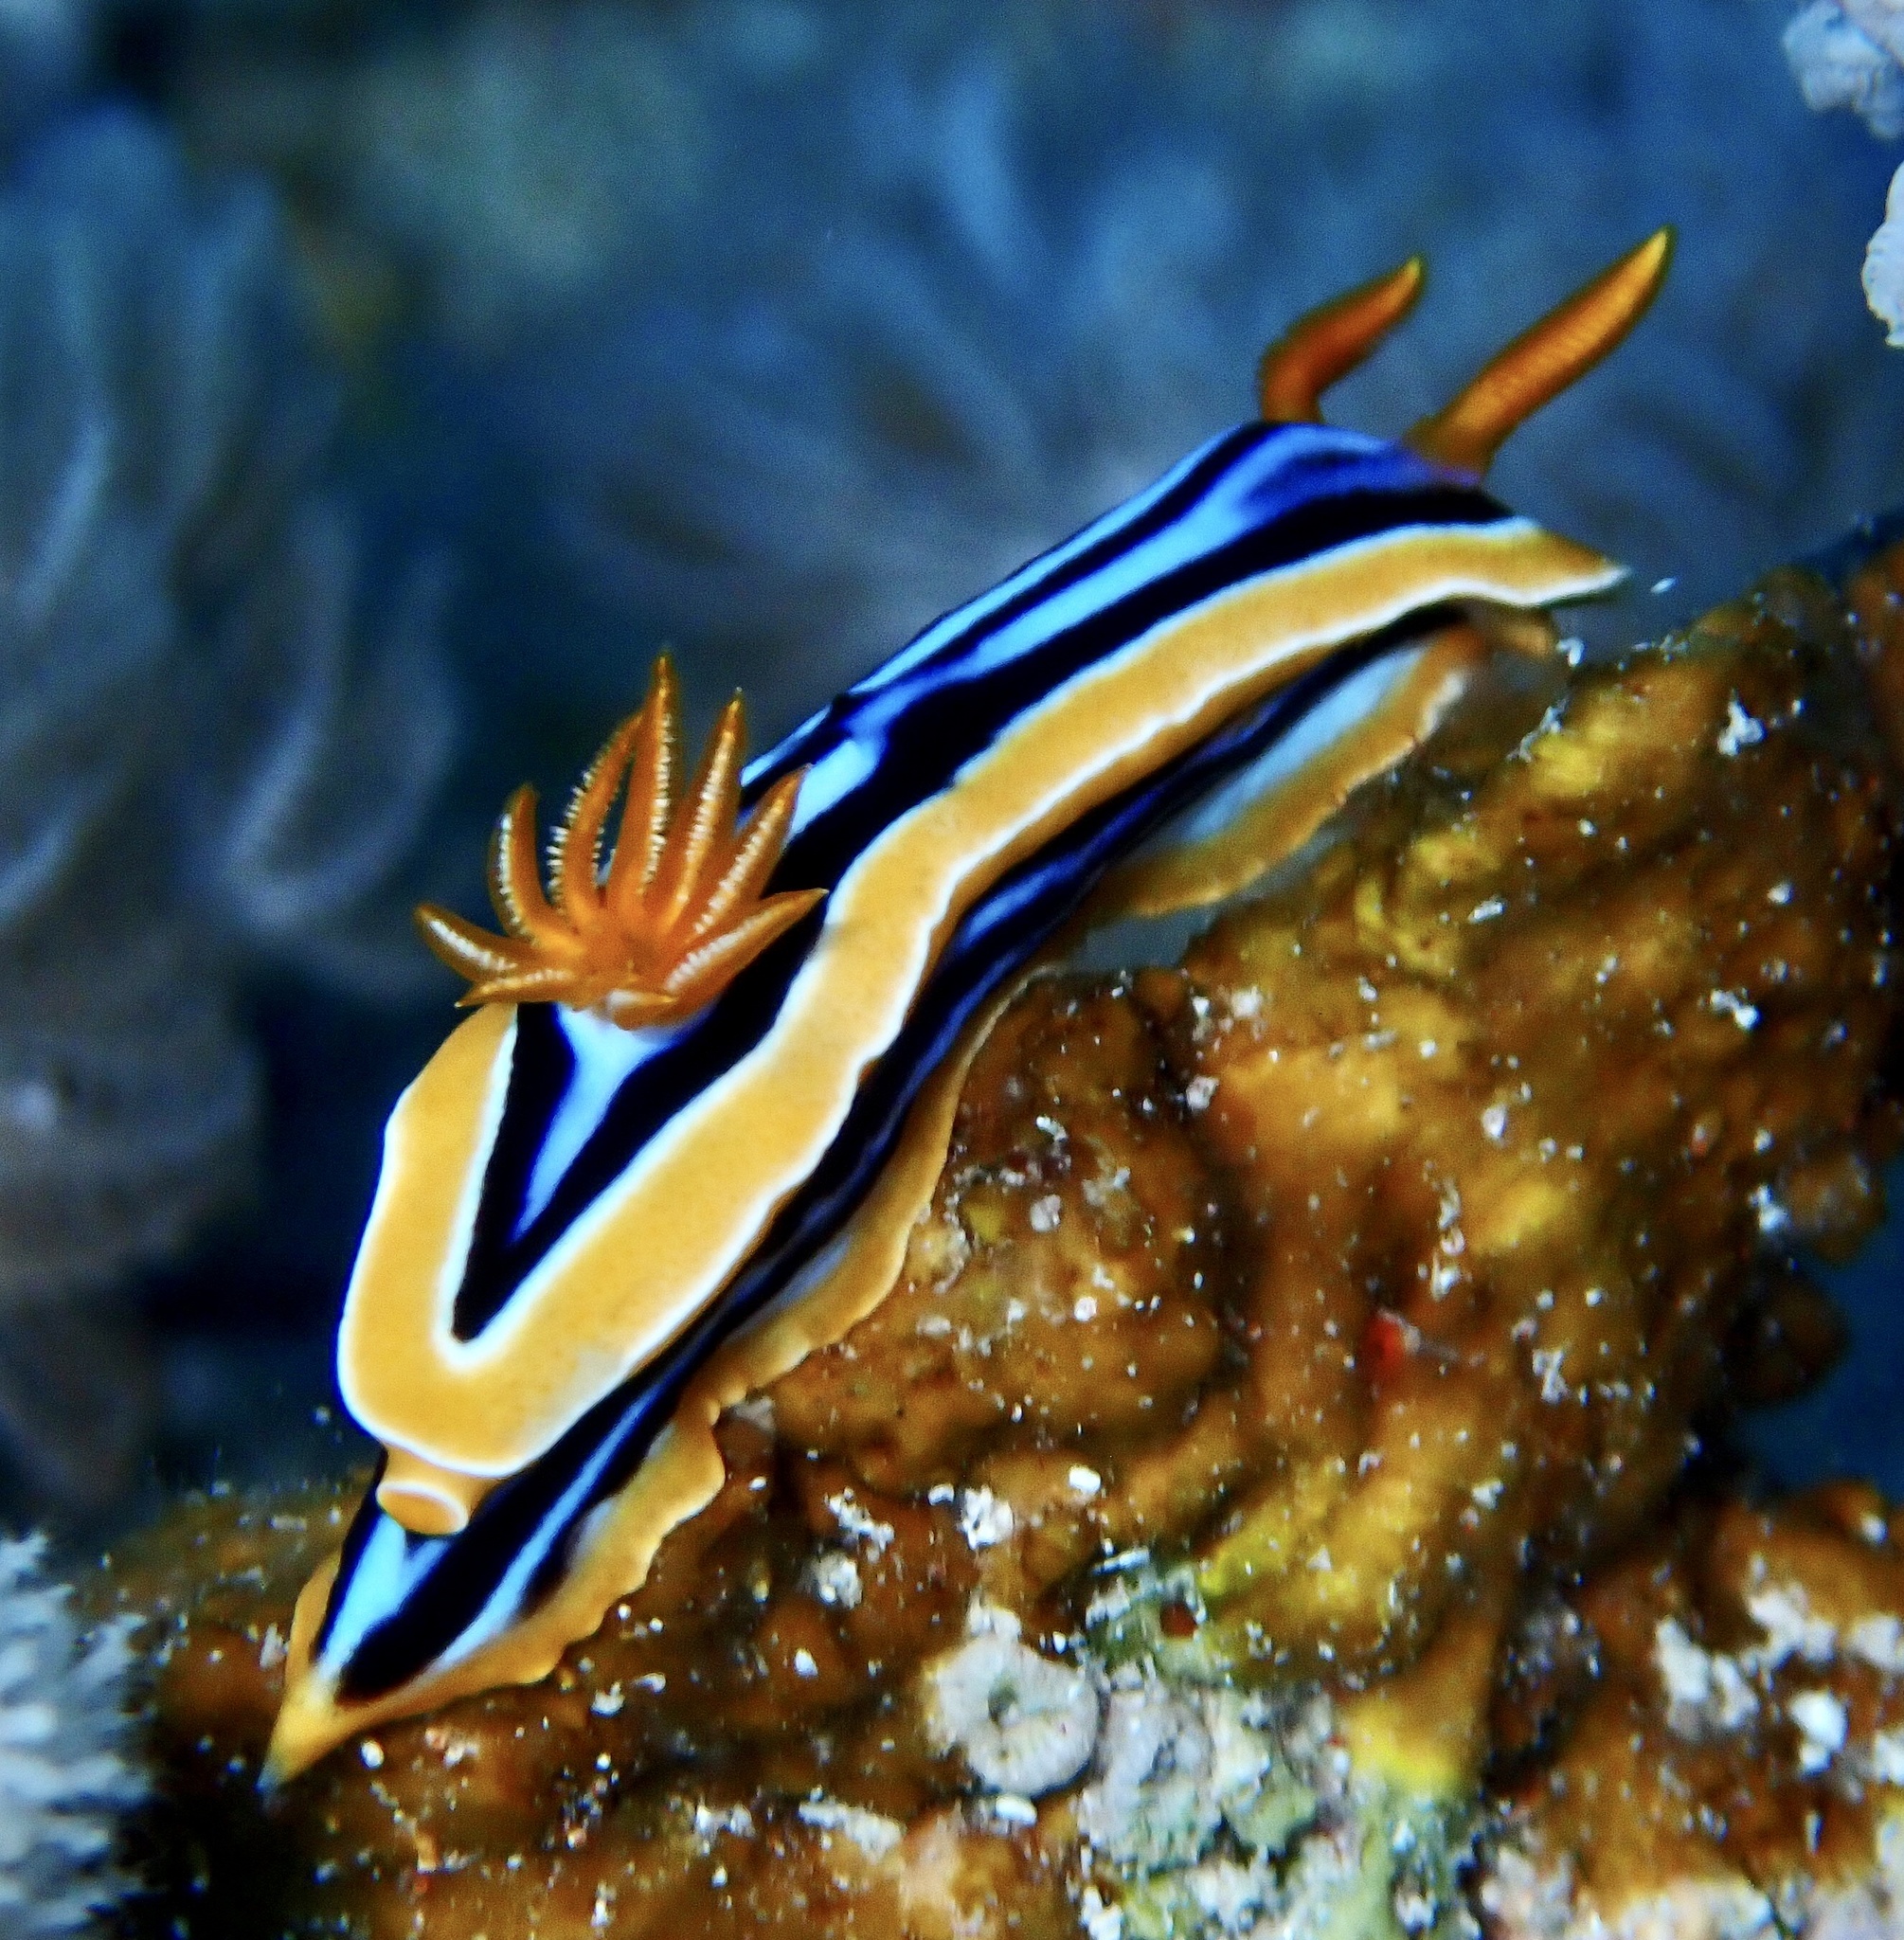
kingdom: Animalia
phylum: Mollusca
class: Gastropoda
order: Nudibranchia
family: Chromodorididae
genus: Chromodoris
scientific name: Chromodoris quadricolor
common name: Striped pyjama nudibranch
